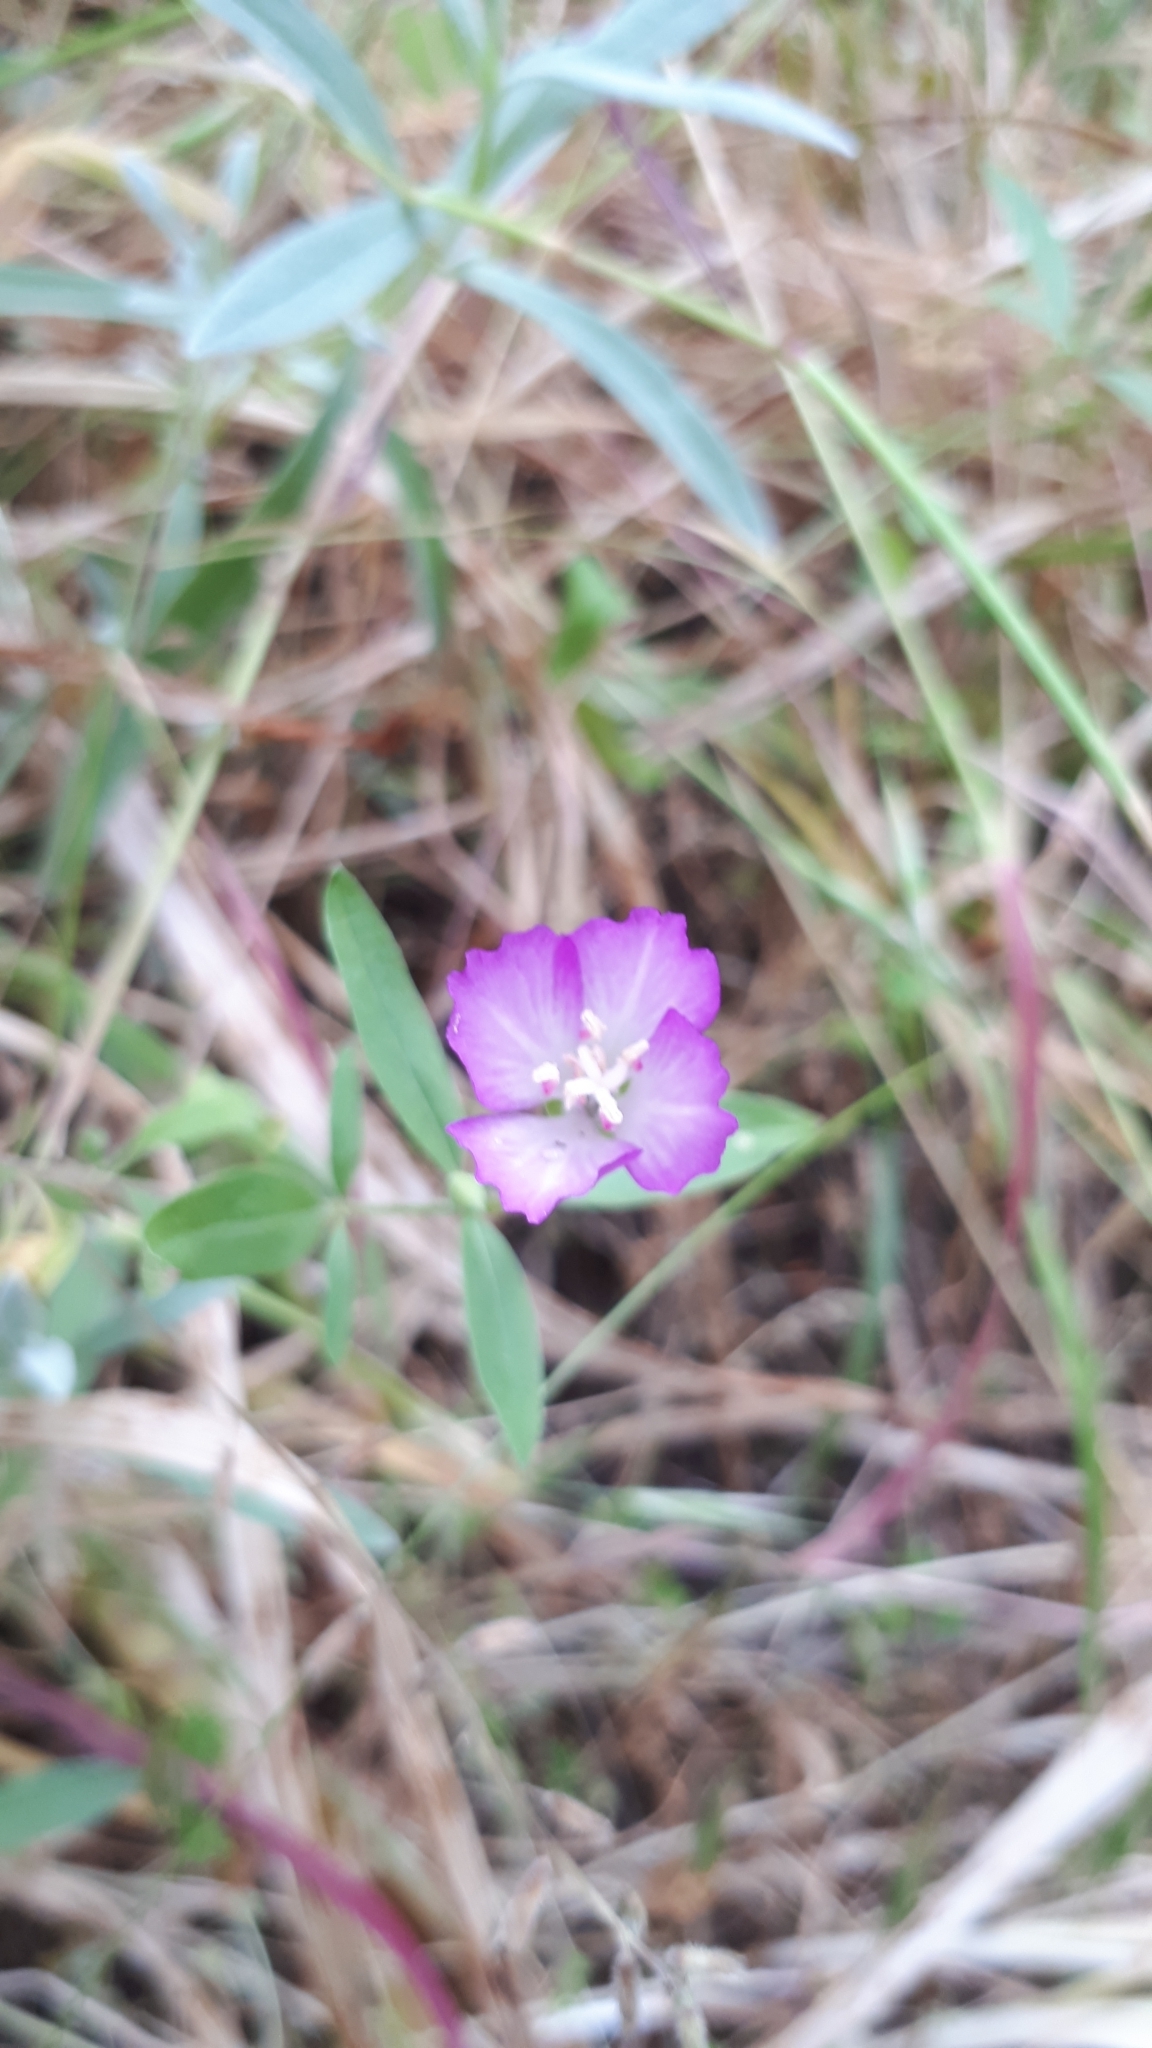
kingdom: Plantae
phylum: Tracheophyta
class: Magnoliopsida
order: Myrtales
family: Onagraceae
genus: Clarkia
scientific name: Clarkia amoena
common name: Godetia
